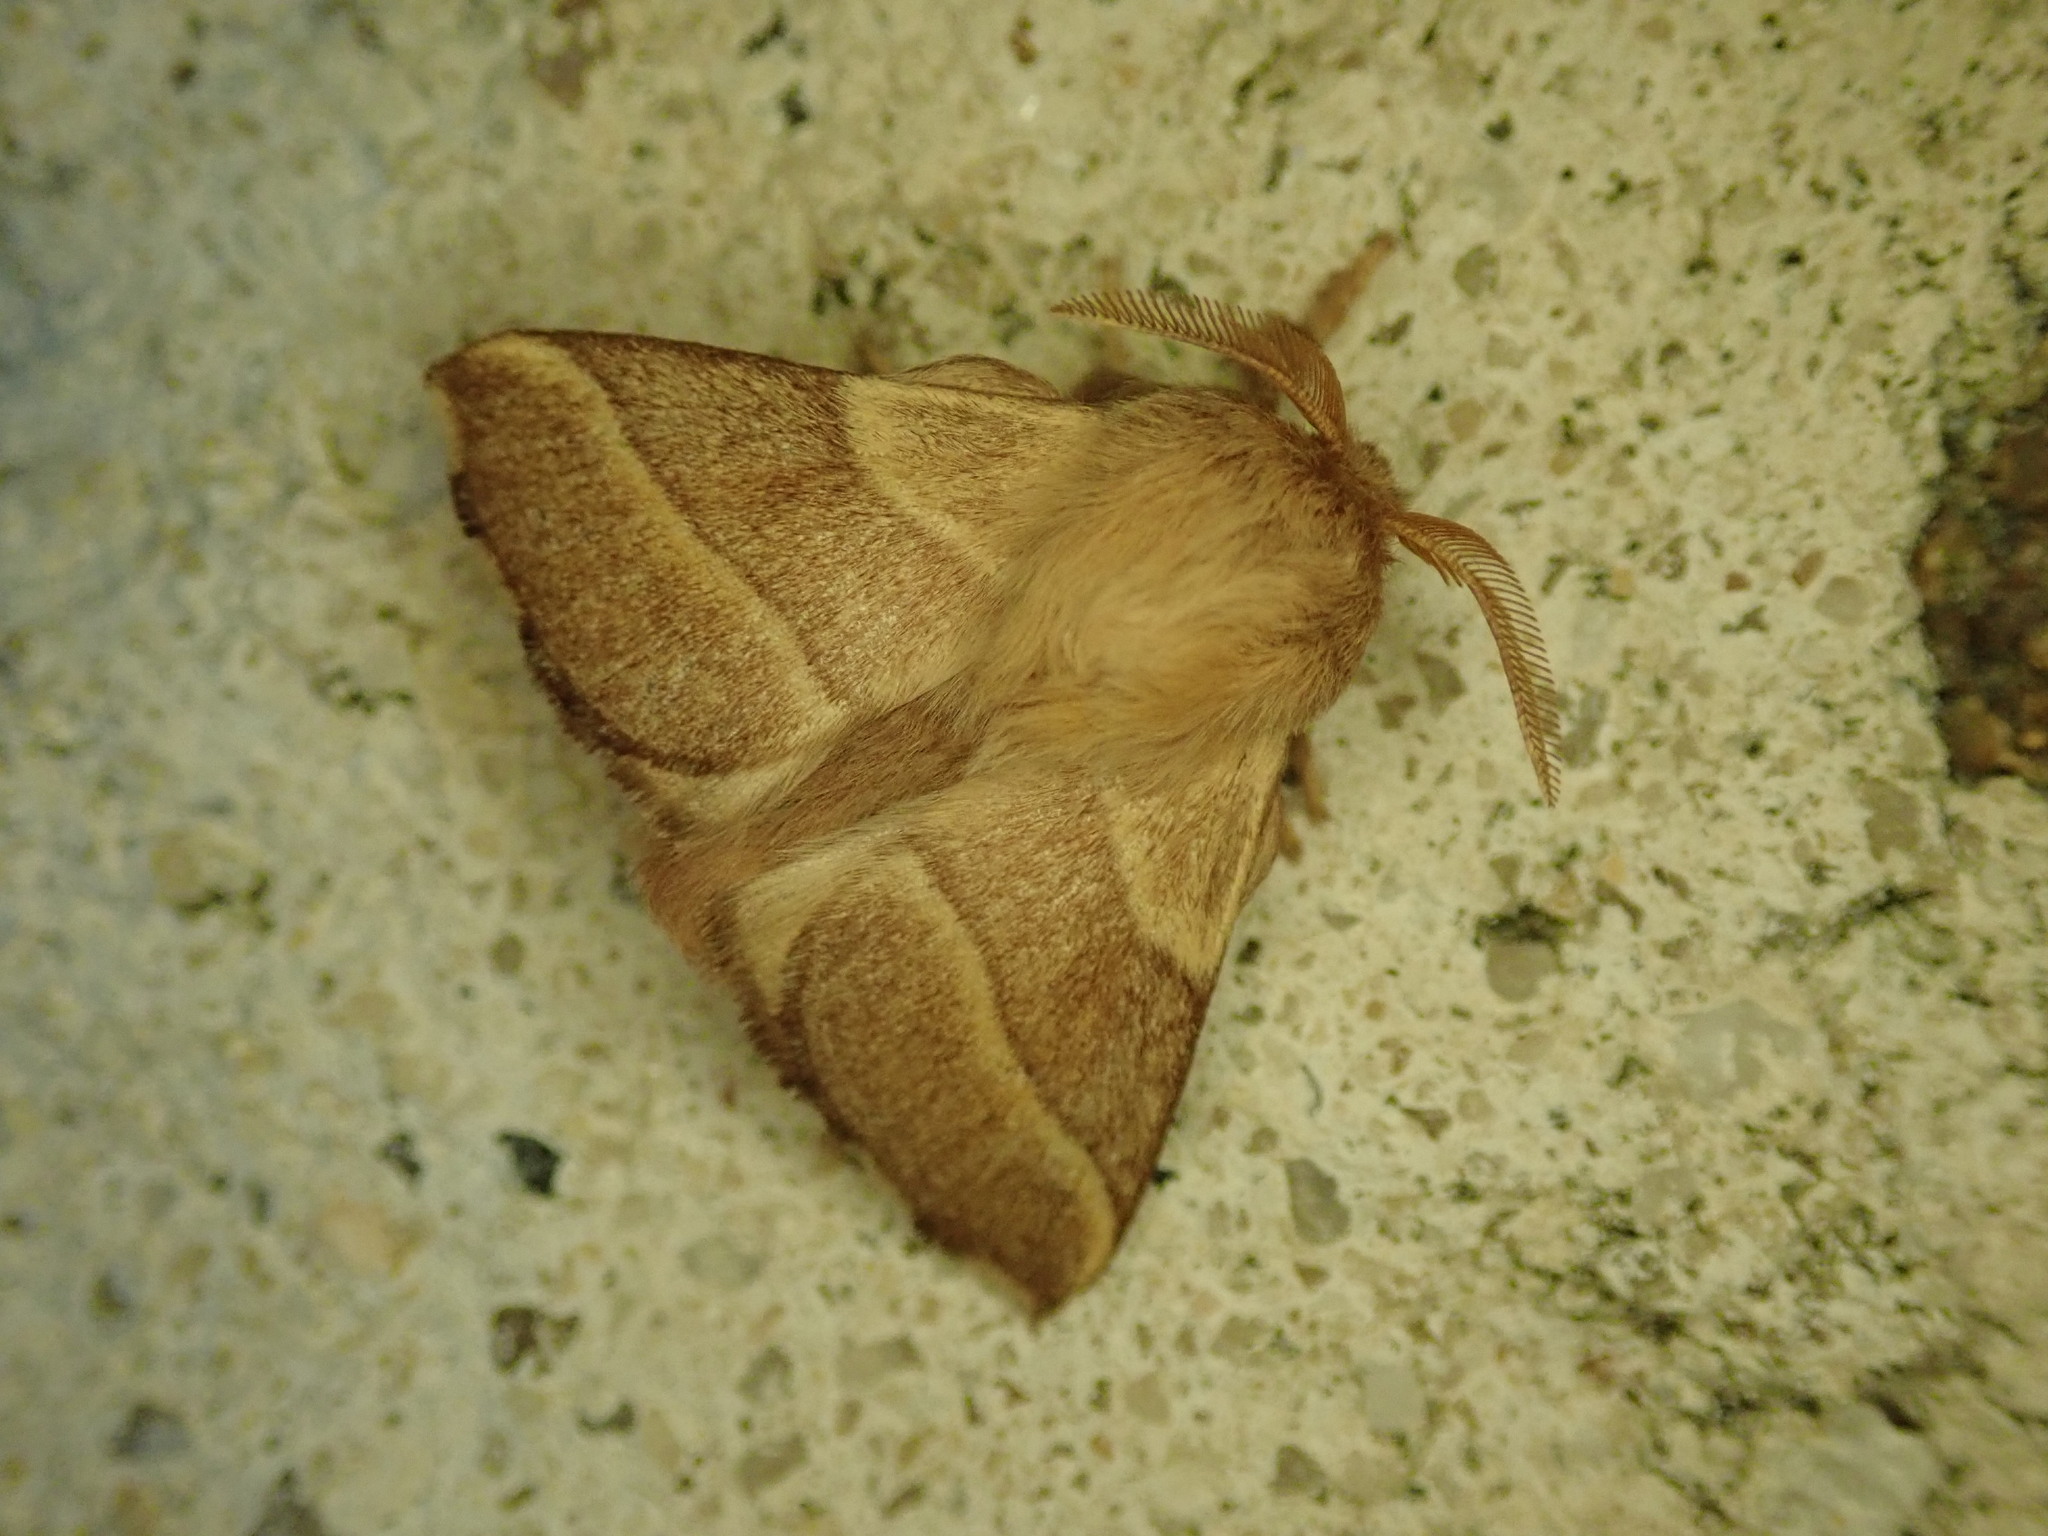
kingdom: Animalia
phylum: Arthropoda
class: Insecta
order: Lepidoptera
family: Lasiocampidae
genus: Malacosoma
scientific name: Malacosoma neustria
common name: The lackey
